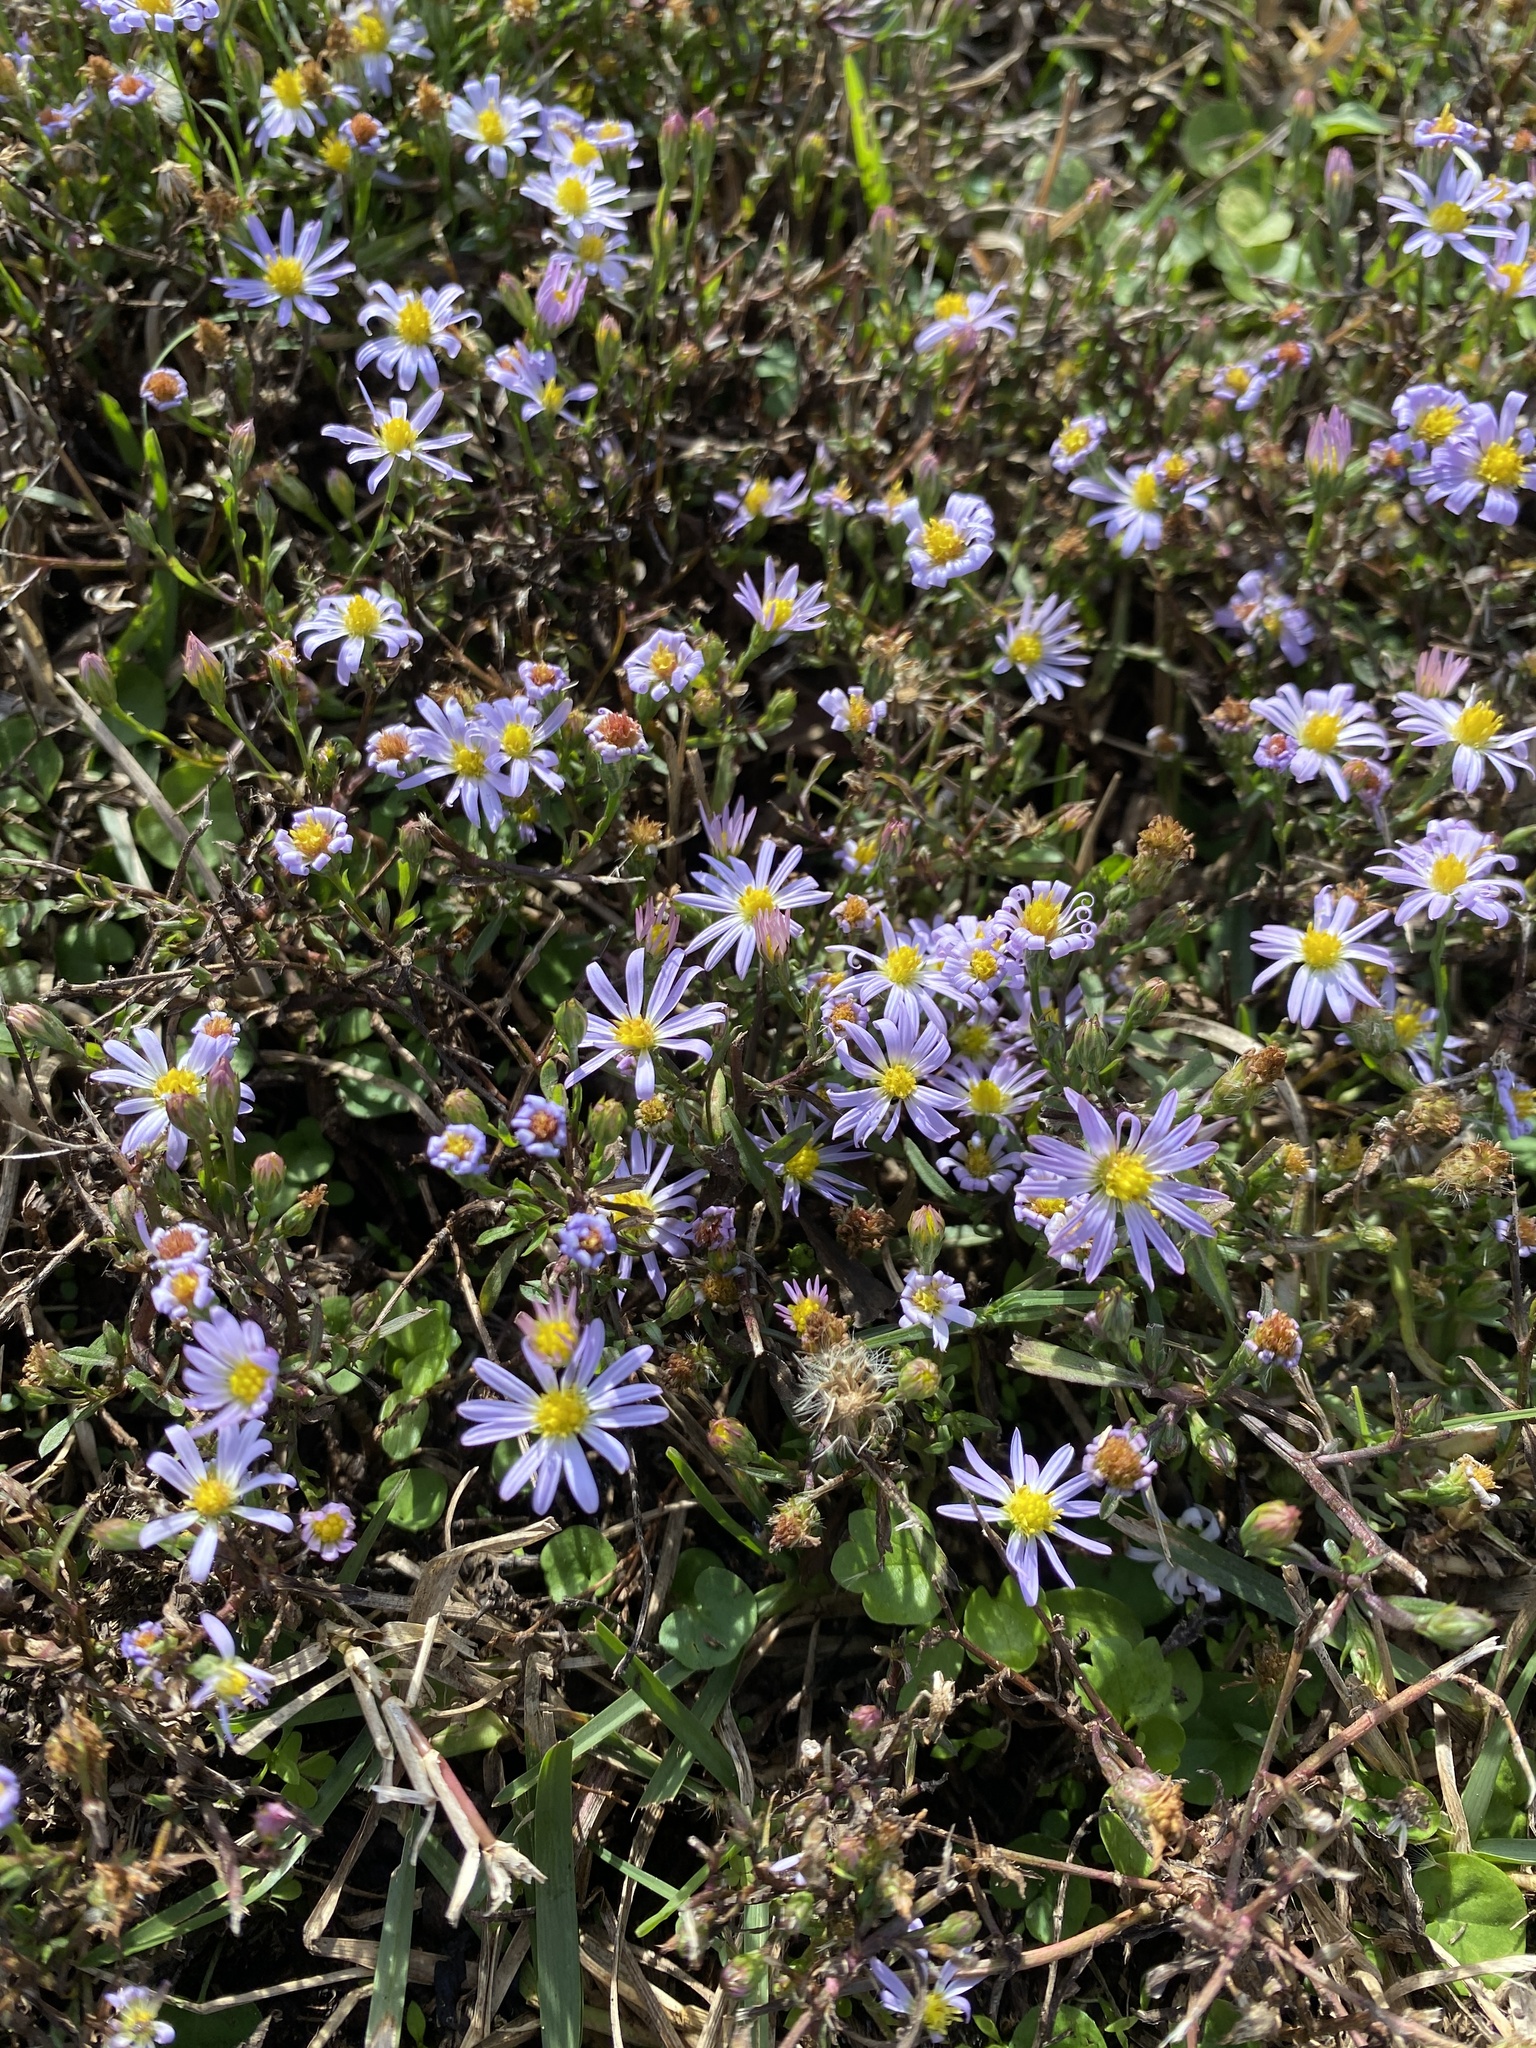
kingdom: Plantae
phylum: Tracheophyta
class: Magnoliopsida
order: Asterales
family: Asteraceae
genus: Symphyotrichum
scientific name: Symphyotrichum divaricatum
